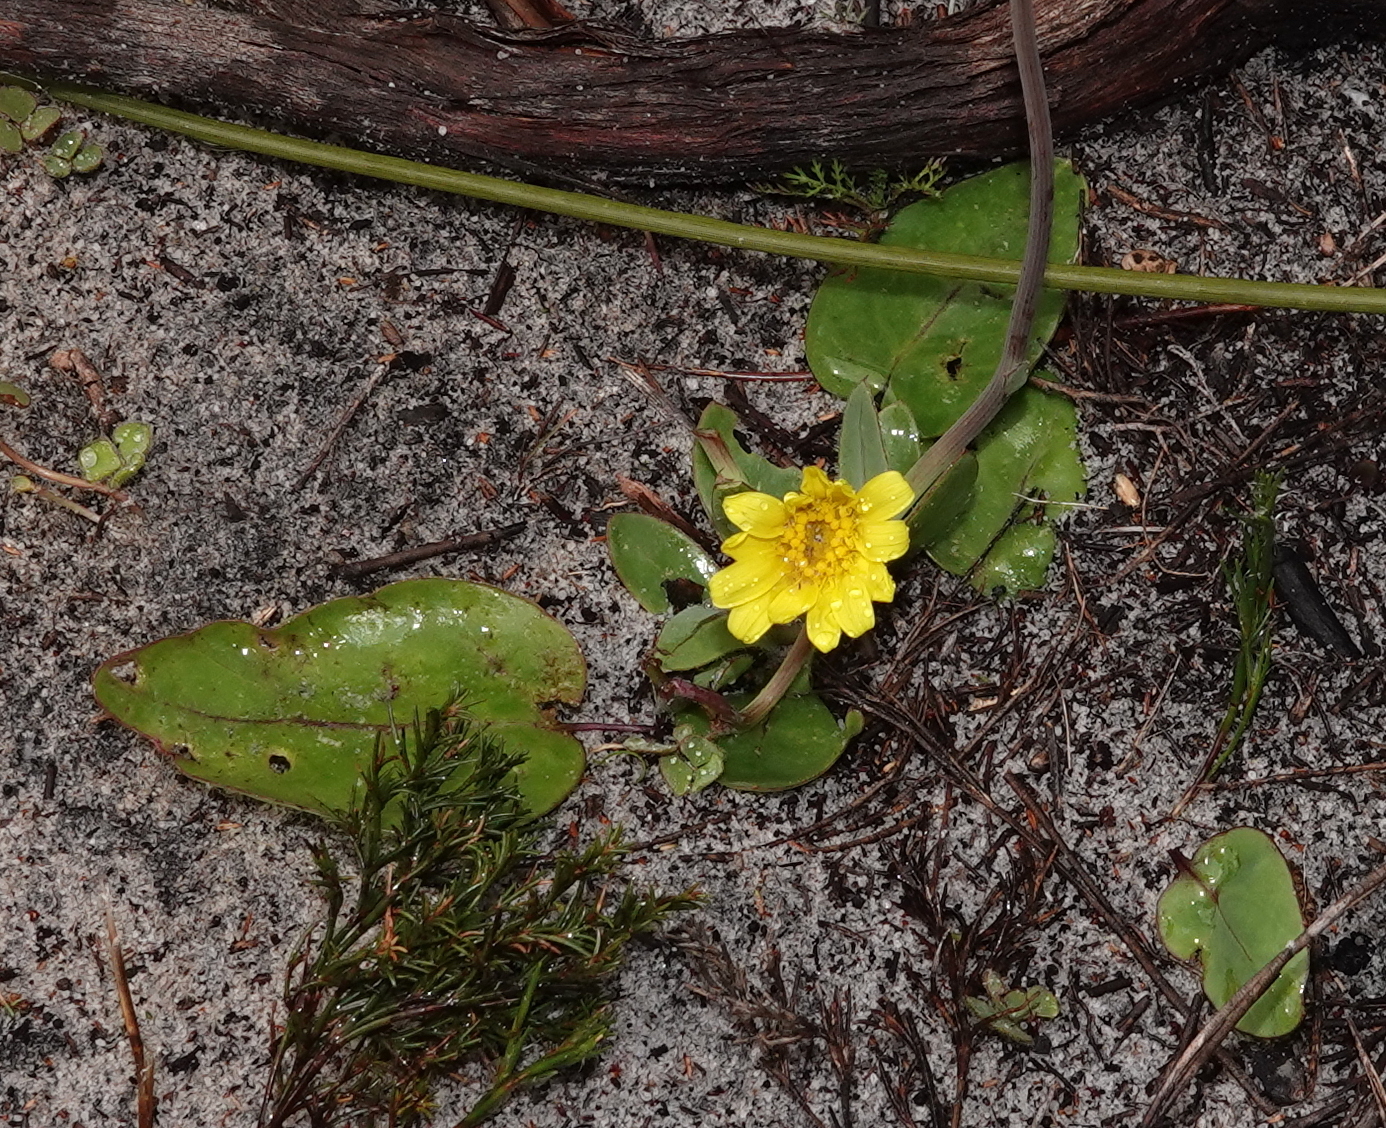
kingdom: Plantae
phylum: Tracheophyta
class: Magnoliopsida
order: Asterales
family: Asteraceae
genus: Othonna
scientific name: Othonna bulbosa
